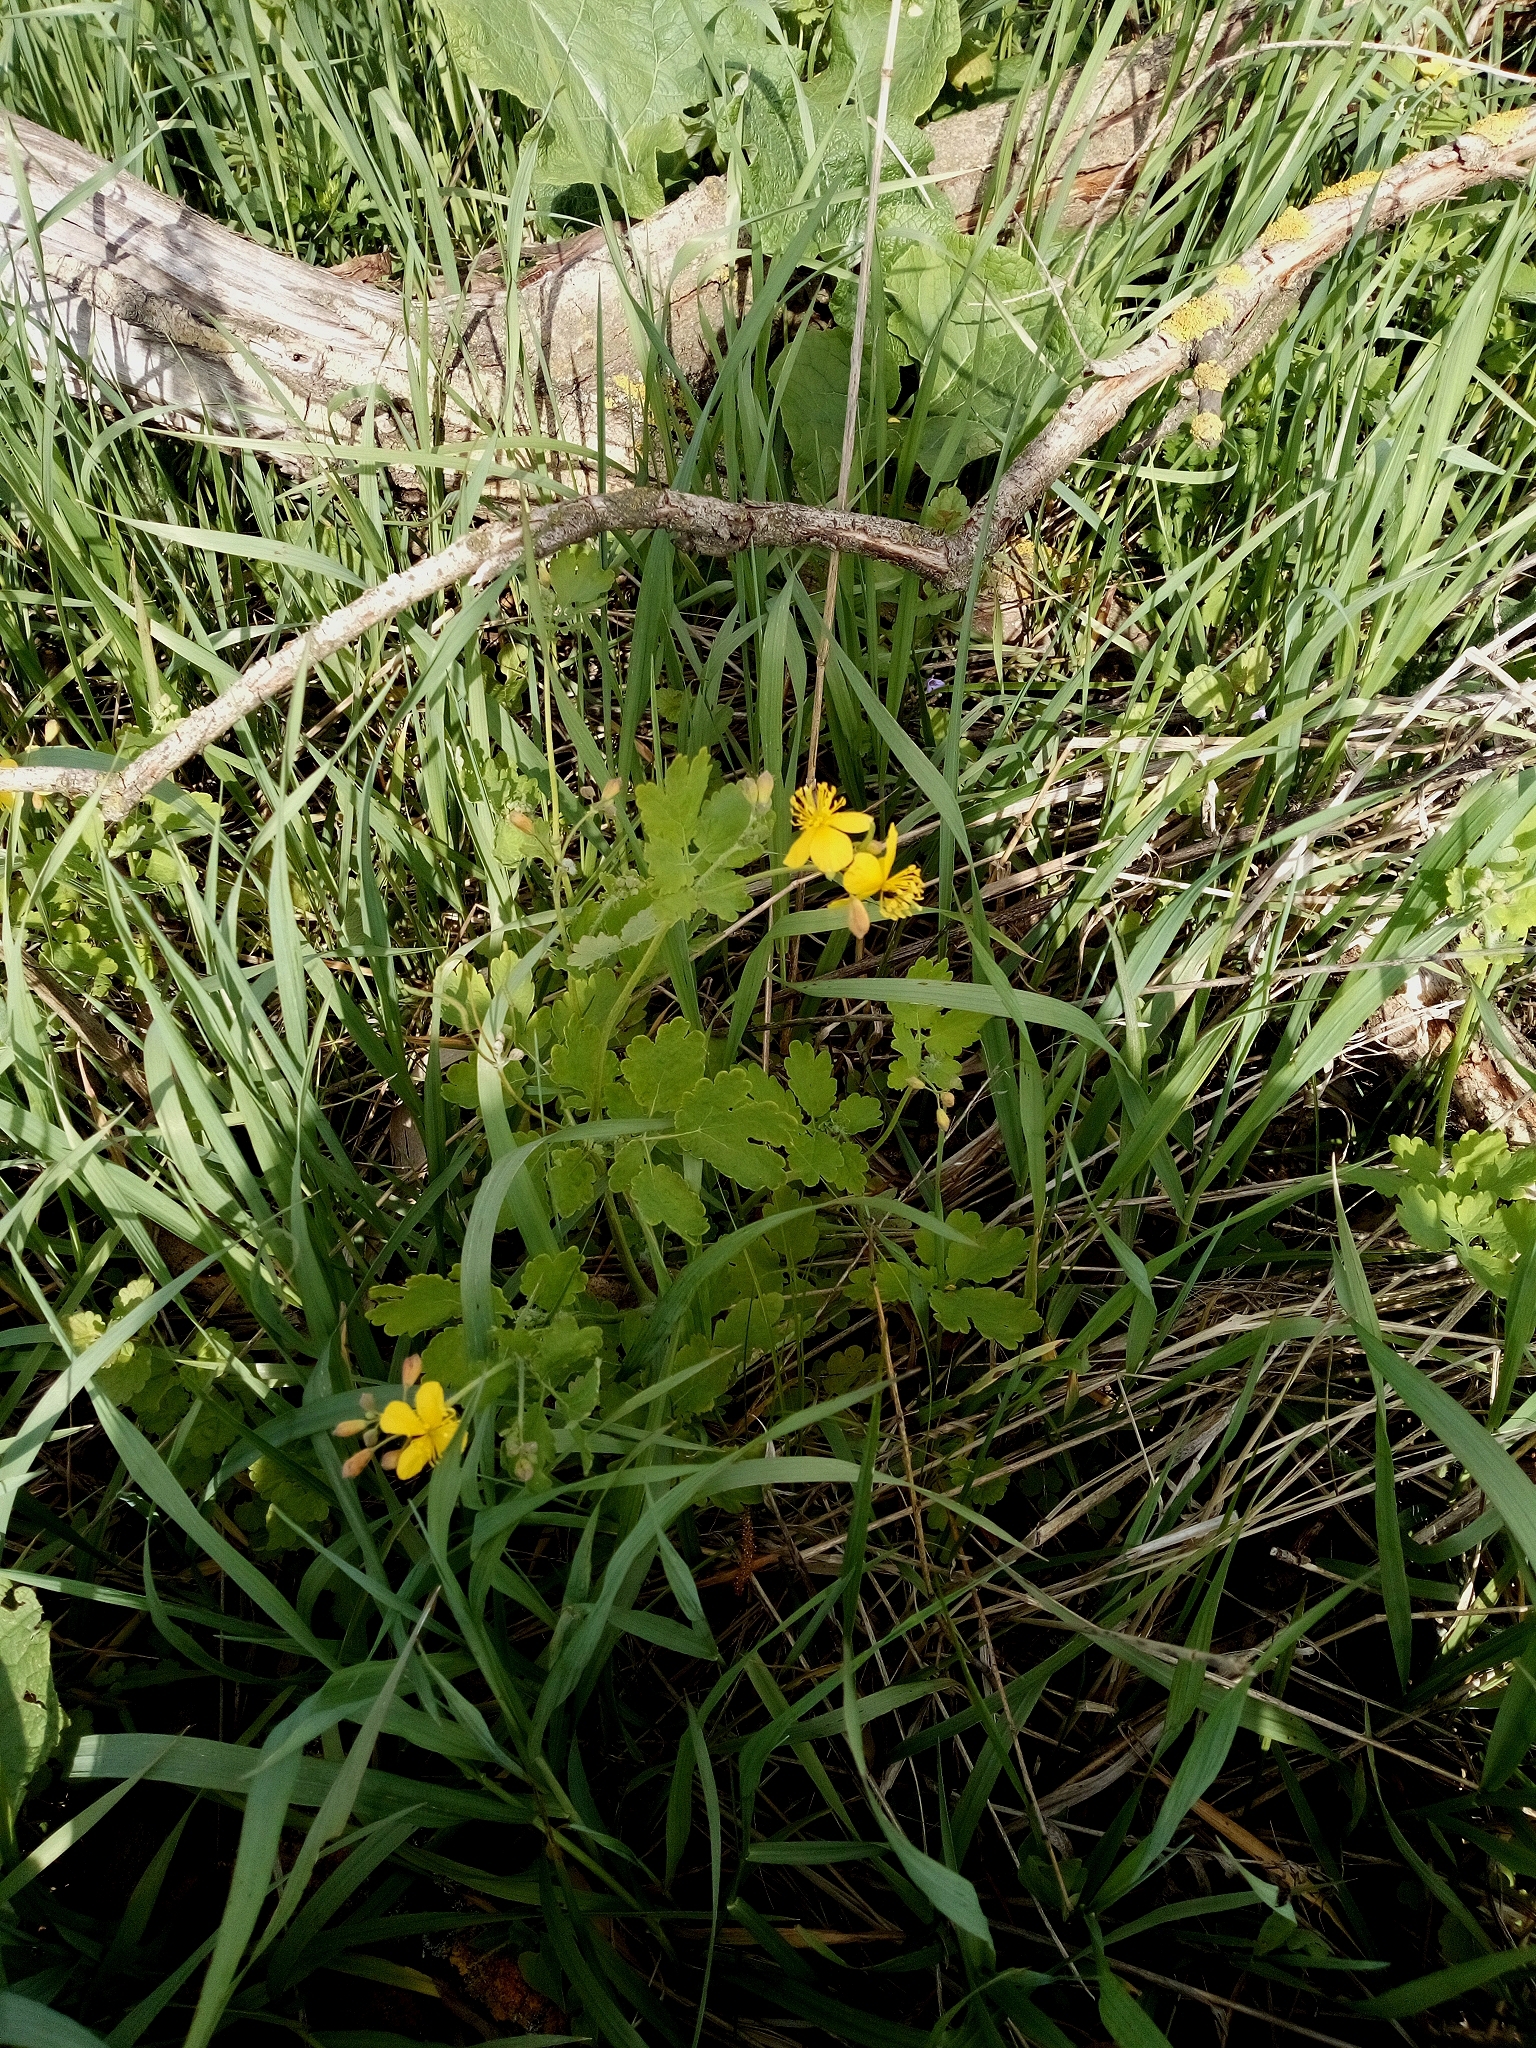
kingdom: Plantae
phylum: Tracheophyta
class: Magnoliopsida
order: Ranunculales
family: Papaveraceae
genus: Chelidonium
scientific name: Chelidonium majus
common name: Greater celandine
